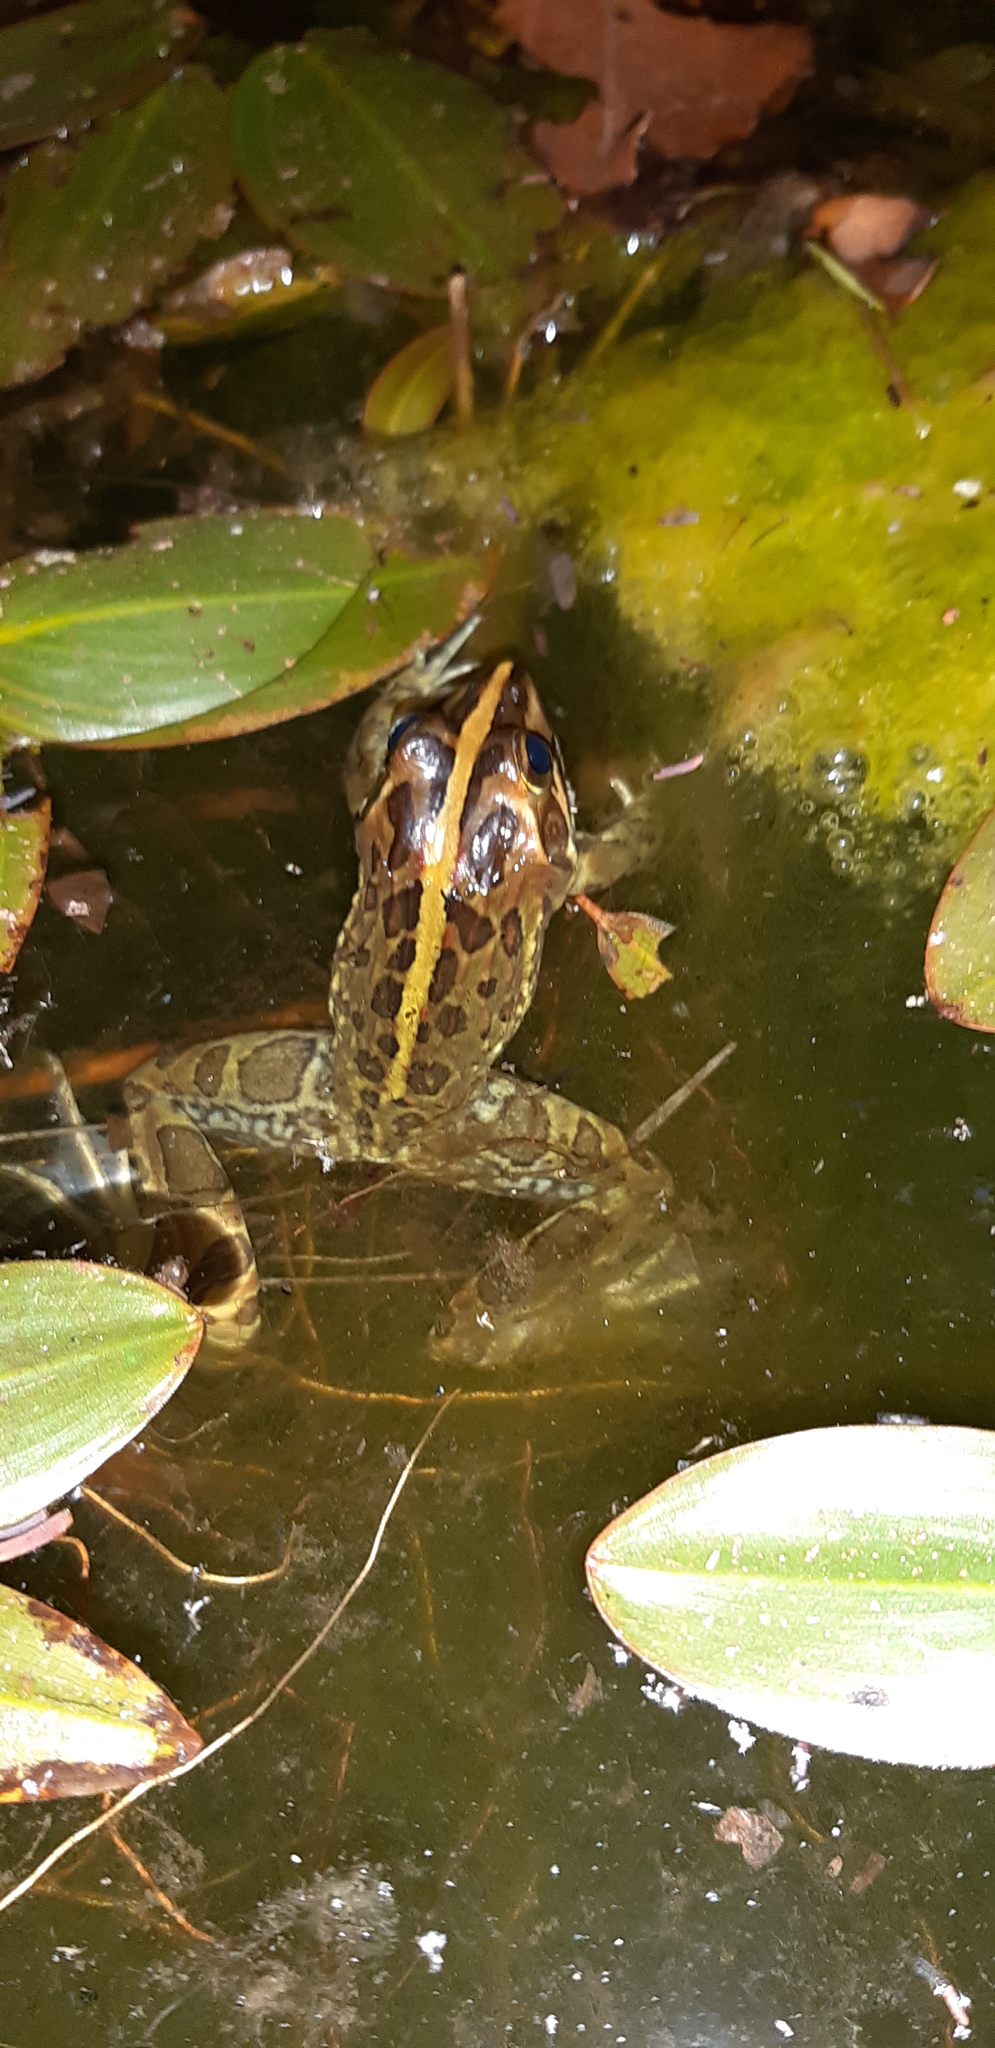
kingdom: Animalia
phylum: Chordata
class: Amphibia
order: Anura
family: Pyxicephalidae
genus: Amietia
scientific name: Amietia delalandii
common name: Delalande's river frog
